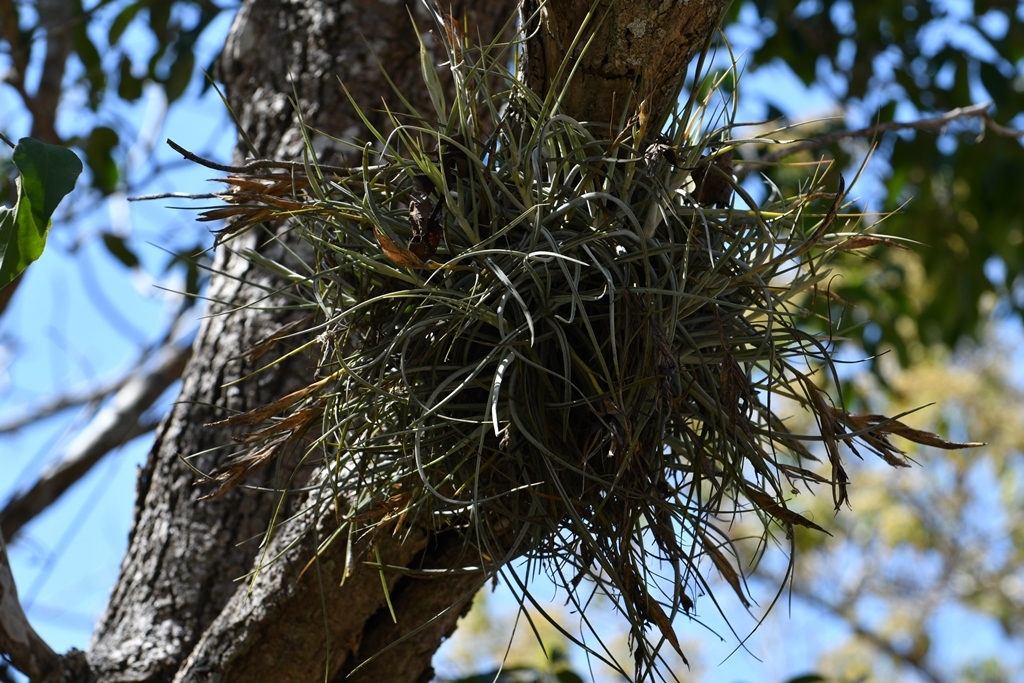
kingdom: Plantae
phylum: Tracheophyta
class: Liliopsida
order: Poales
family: Bromeliaceae
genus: Tillandsia
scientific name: Tillandsia schiedeana
